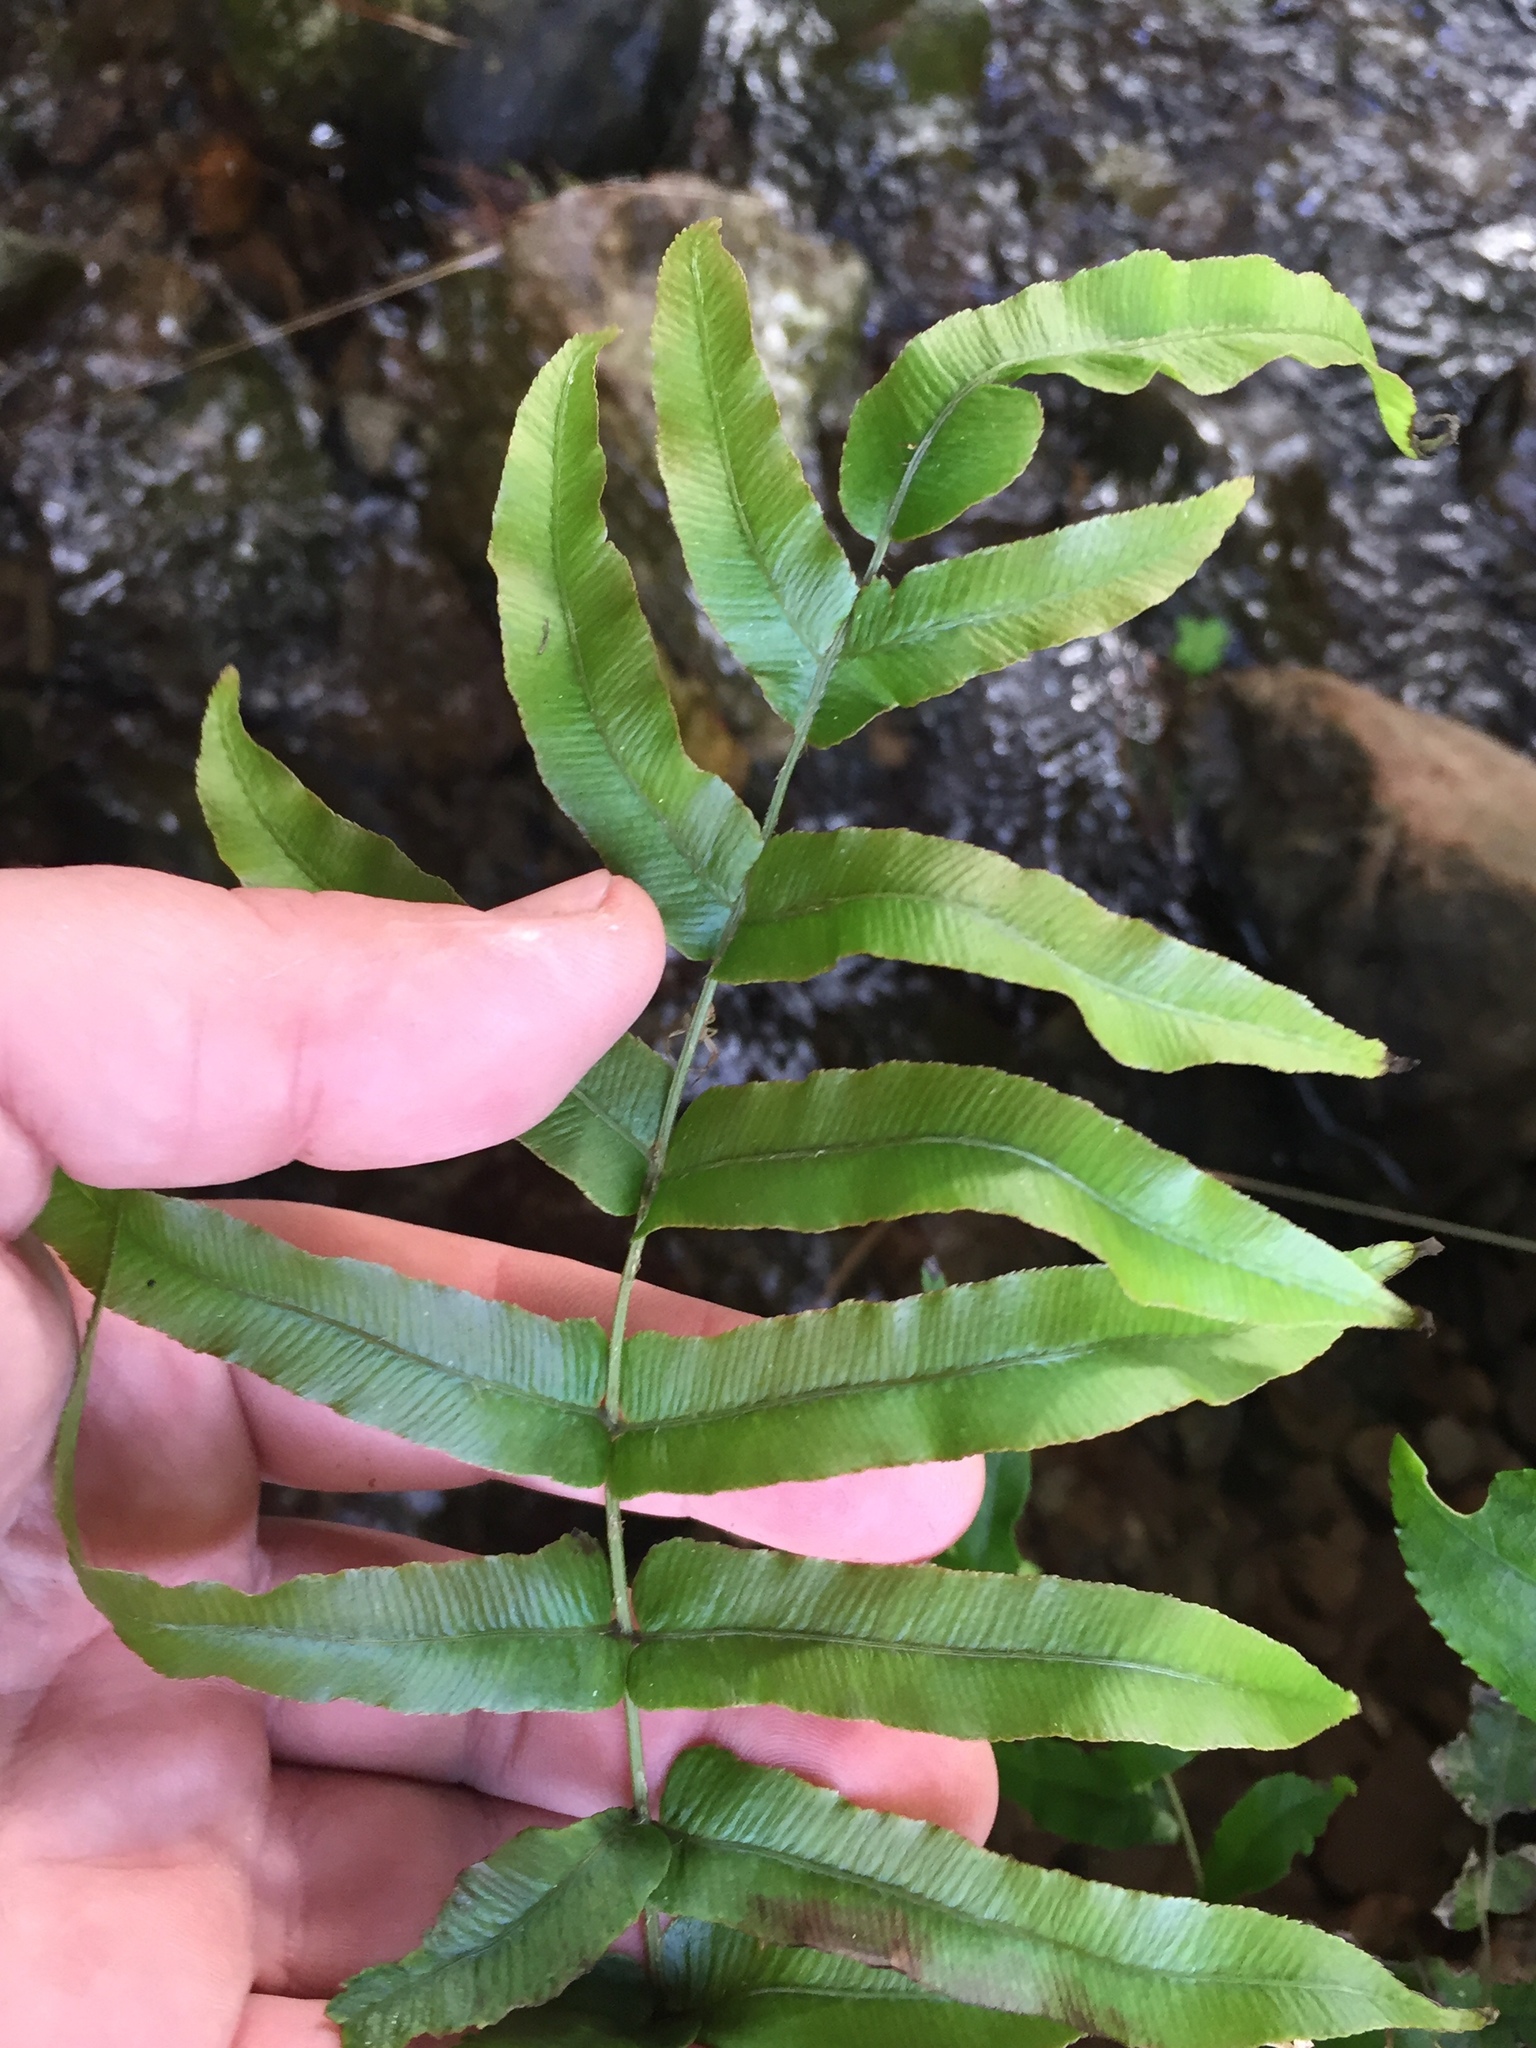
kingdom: Plantae
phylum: Tracheophyta
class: Polypodiopsida
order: Polypodiales
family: Blechnaceae
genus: Parablechnum
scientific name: Parablechnum minus
